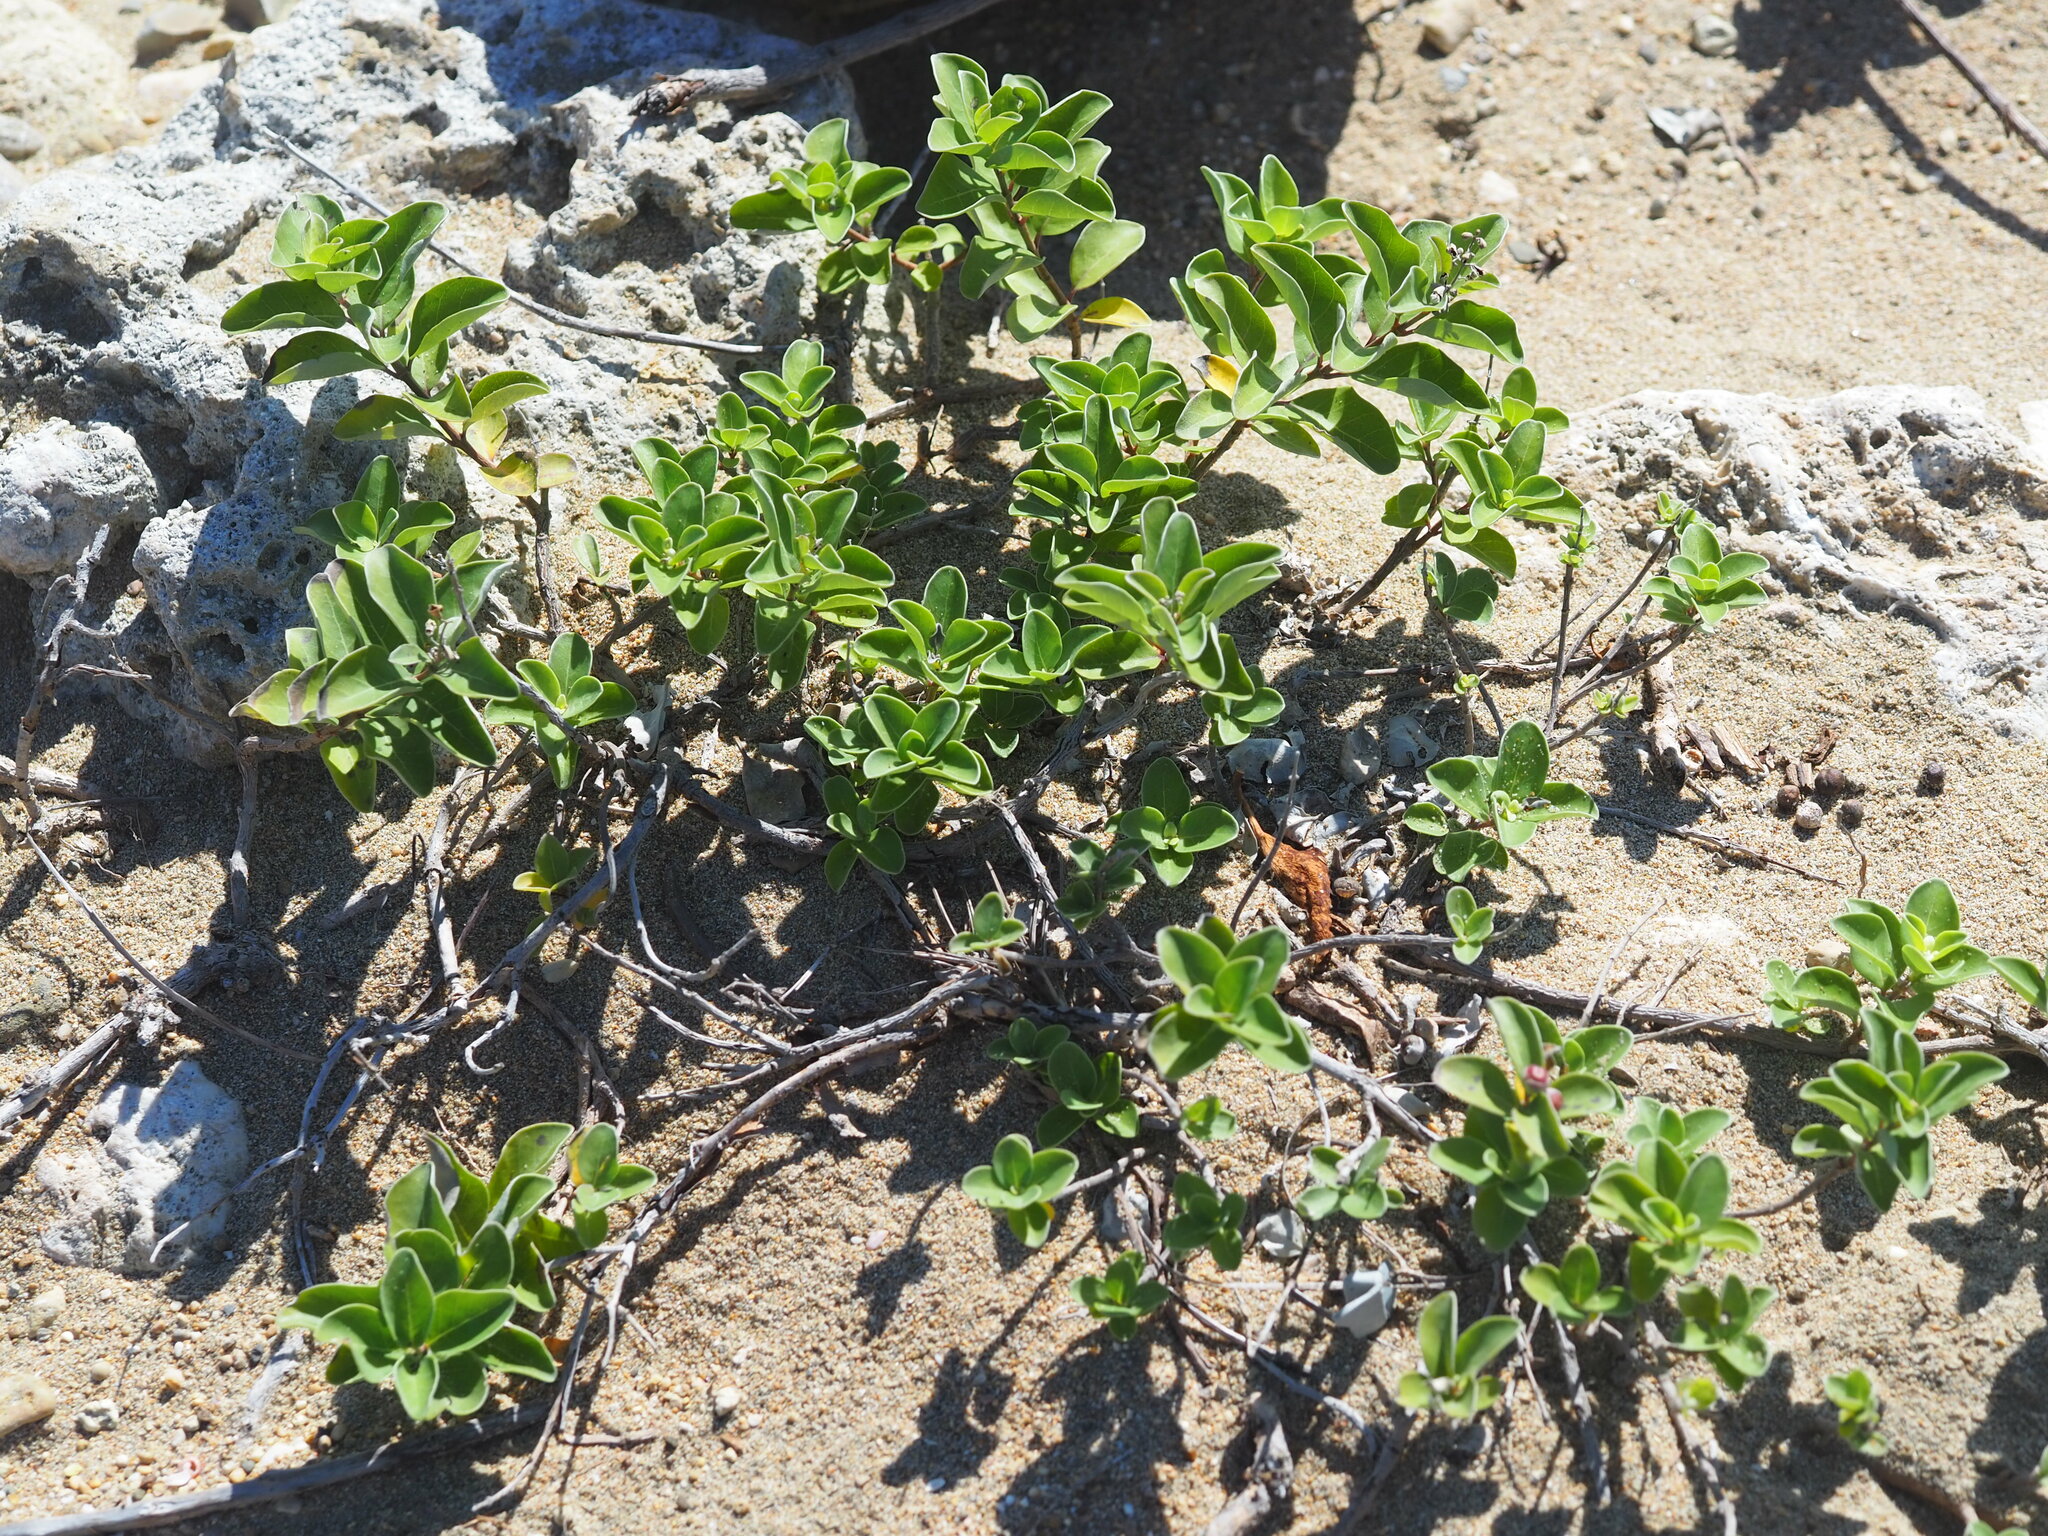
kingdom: Plantae
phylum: Tracheophyta
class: Magnoliopsida
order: Lamiales
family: Lamiaceae
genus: Vitex
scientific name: Vitex rotundifolia
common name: Beach vitex
